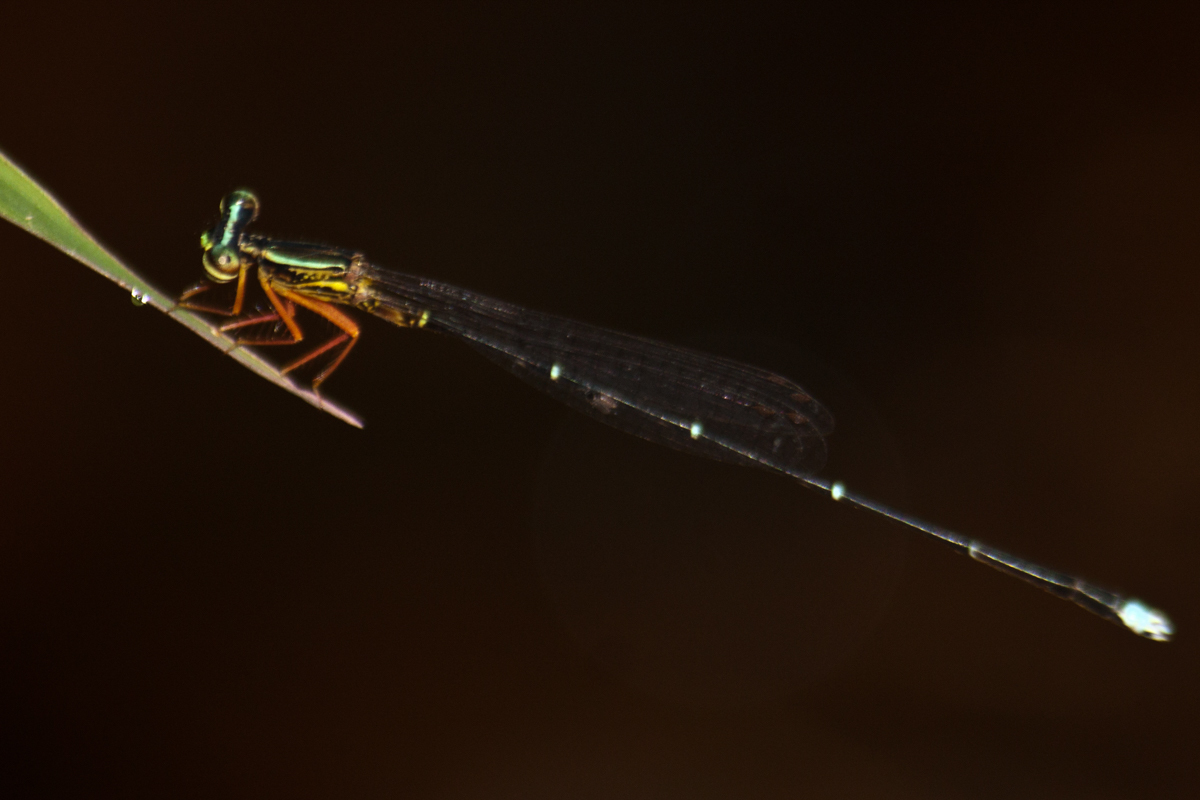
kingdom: Animalia
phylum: Arthropoda
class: Insecta
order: Odonata
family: Platycnemididae
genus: Copera
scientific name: Copera vittata
